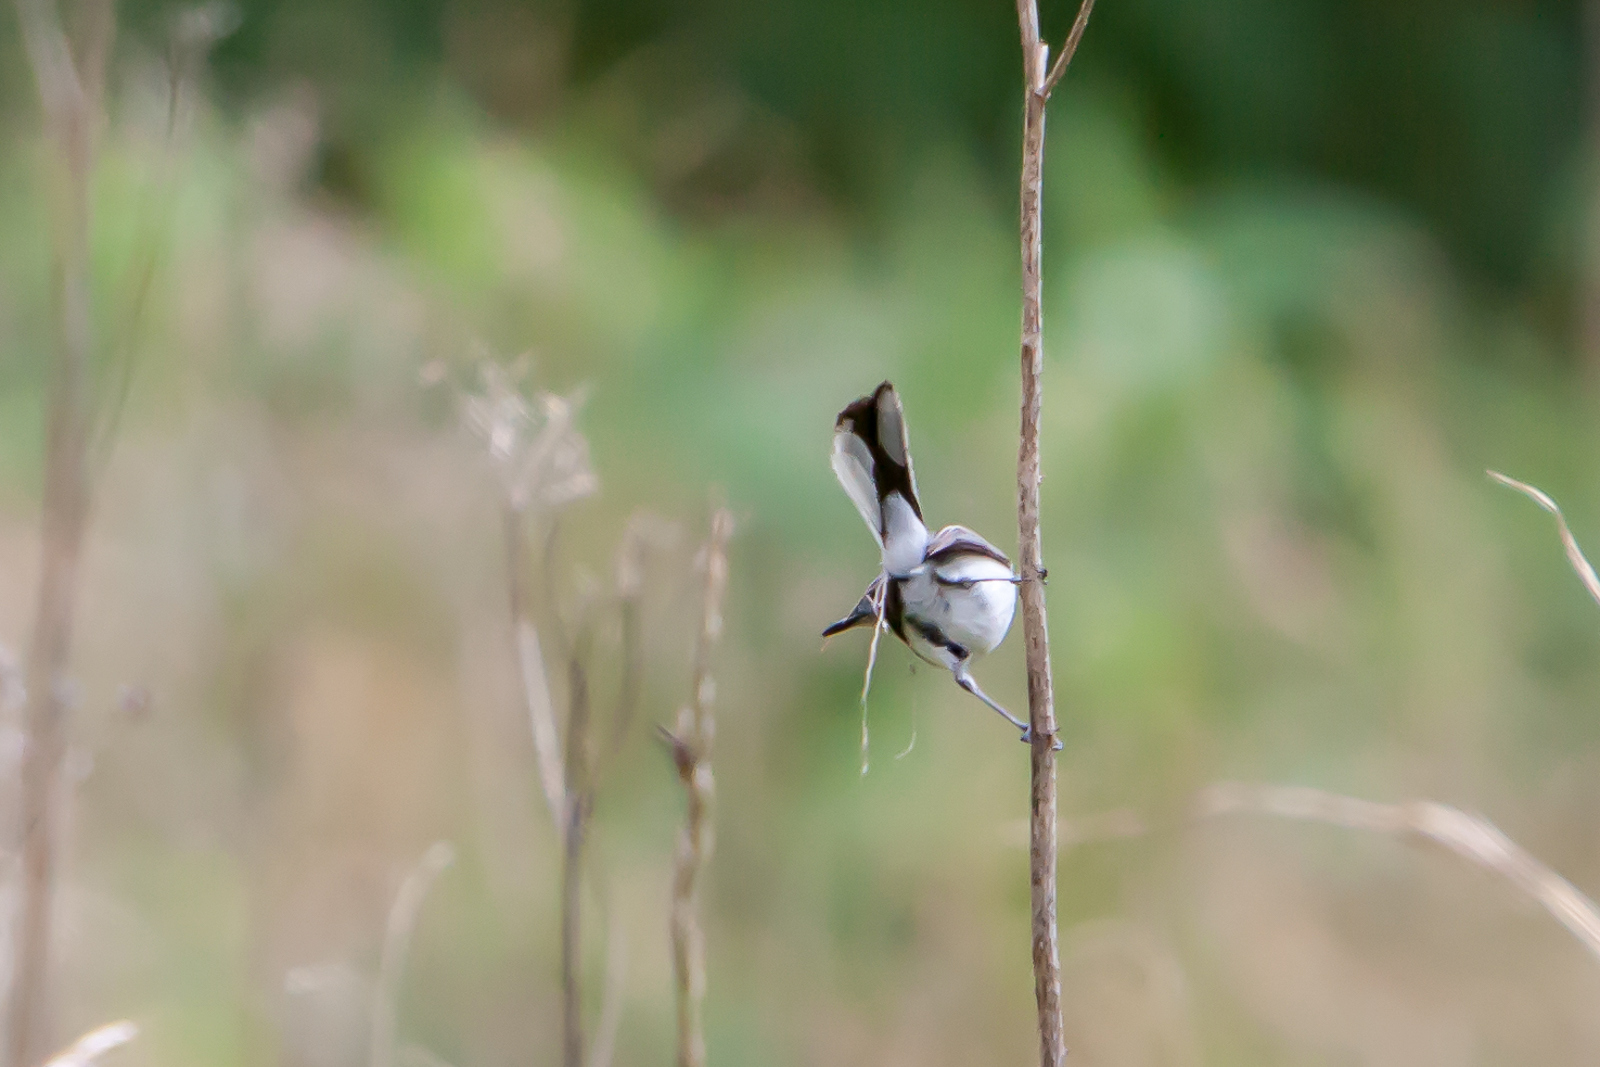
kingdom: Animalia
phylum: Chordata
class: Aves
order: Passeriformes
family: Polioptilidae
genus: Polioptila
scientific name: Polioptila caerulea
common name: Blue-gray gnatcatcher
